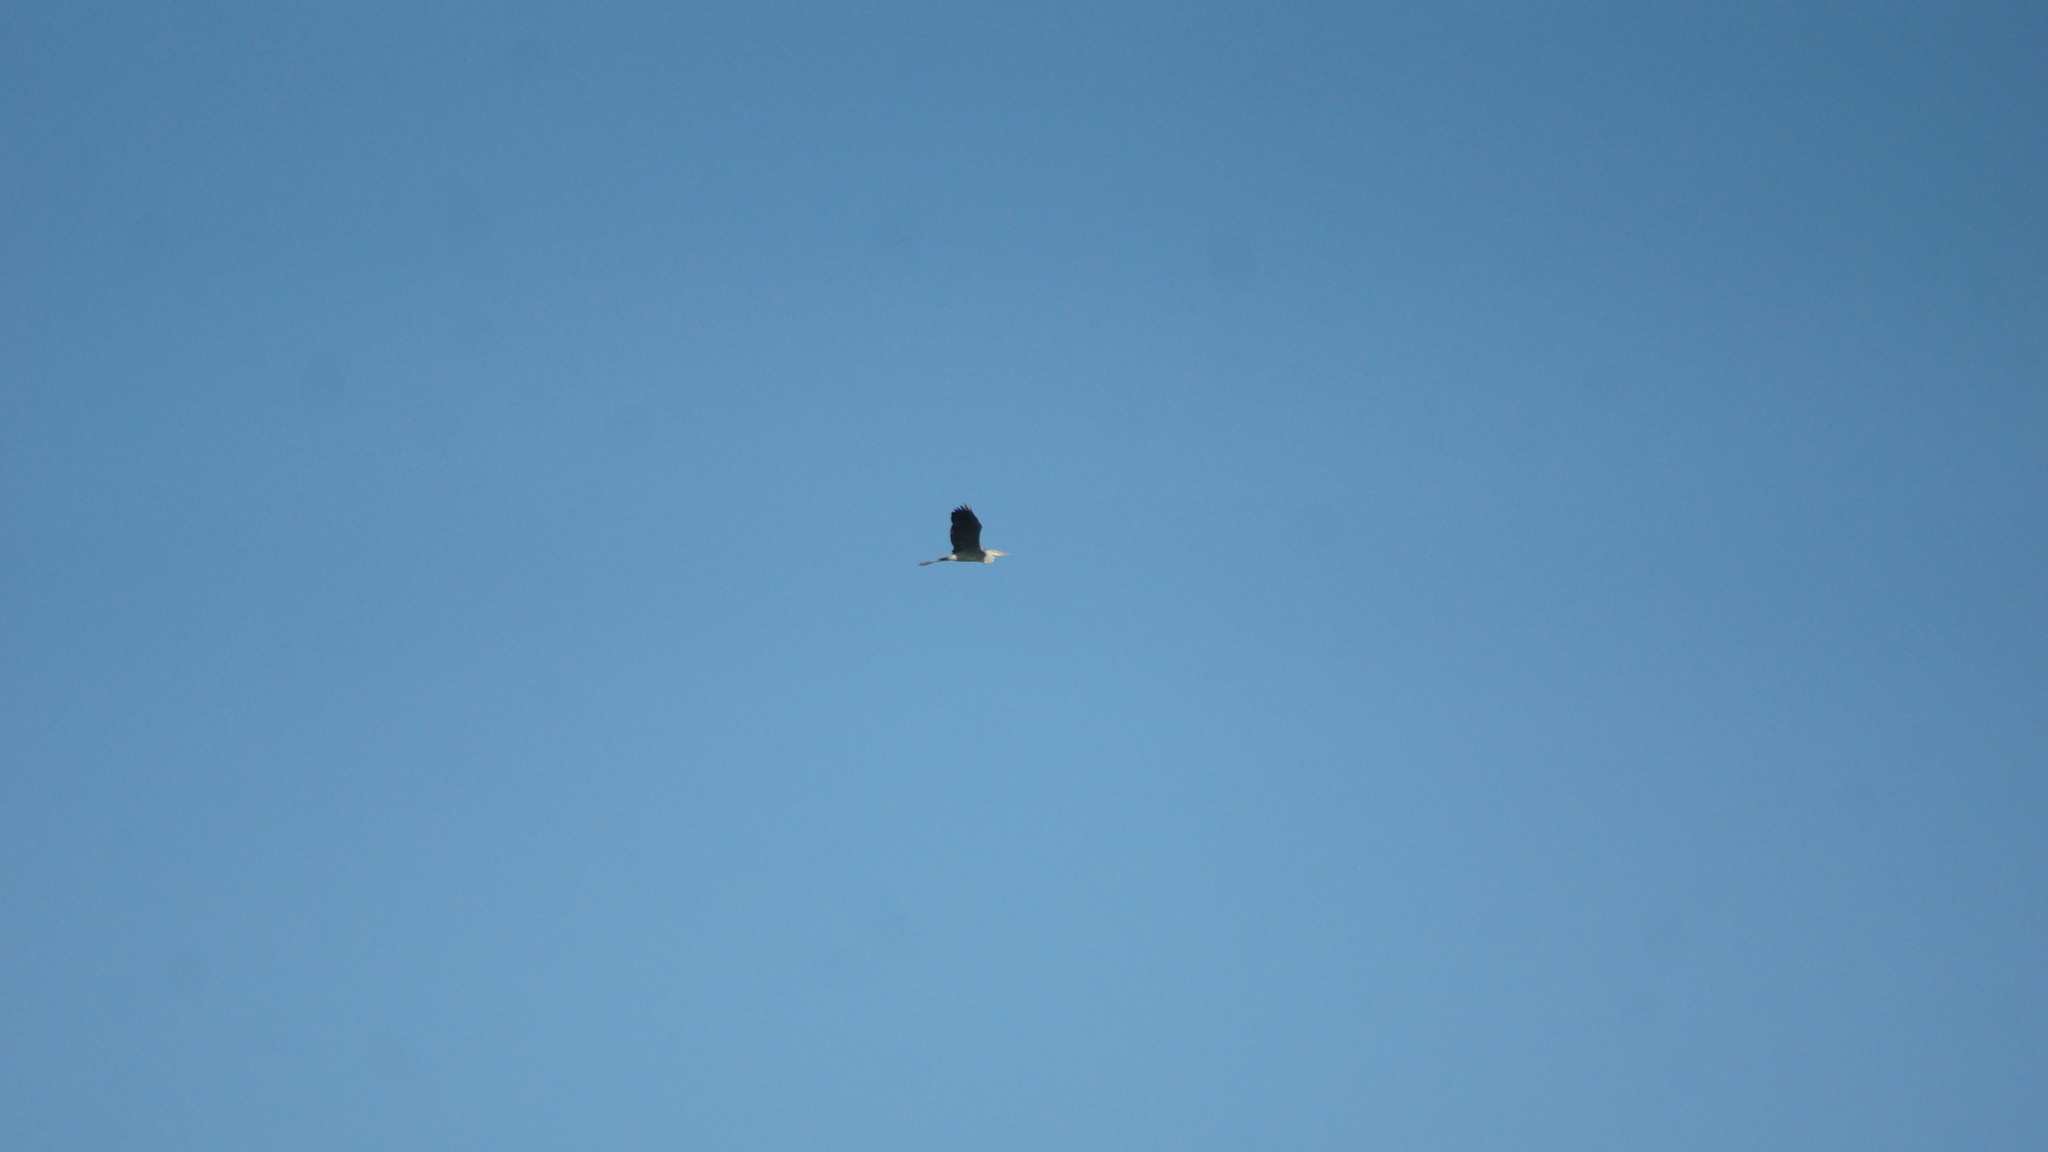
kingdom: Animalia
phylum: Chordata
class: Aves
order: Pelecaniformes
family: Ardeidae
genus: Ardea
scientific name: Ardea cinerea
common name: Grey heron
